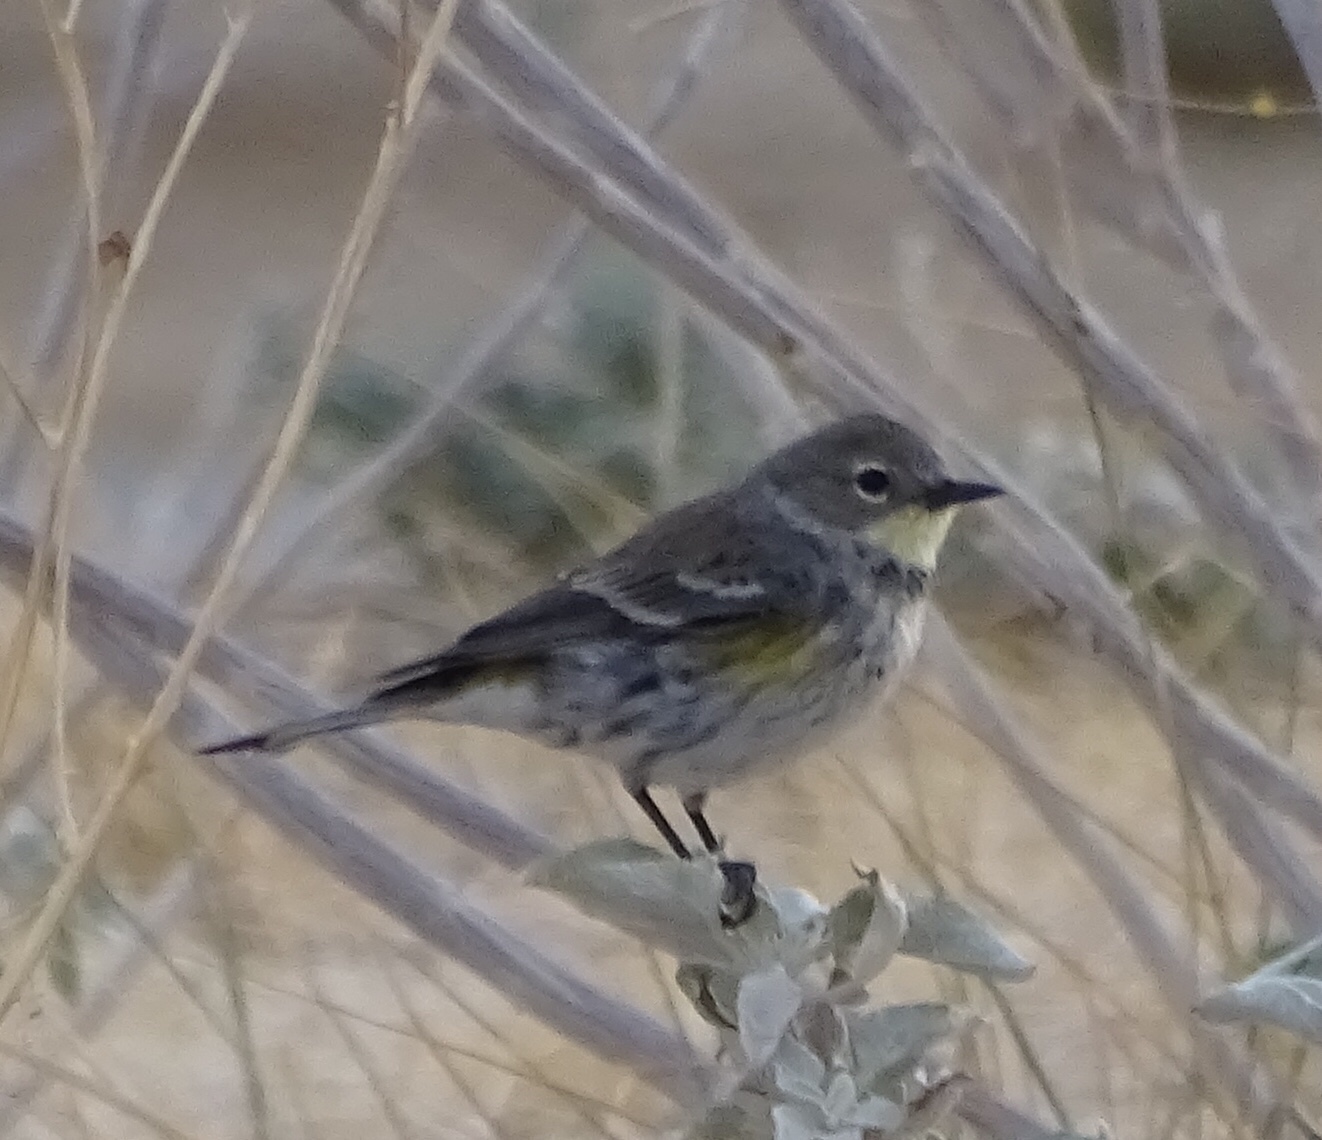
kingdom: Animalia
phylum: Chordata
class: Aves
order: Passeriformes
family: Parulidae
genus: Setophaga
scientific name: Setophaga coronata
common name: Myrtle warbler
